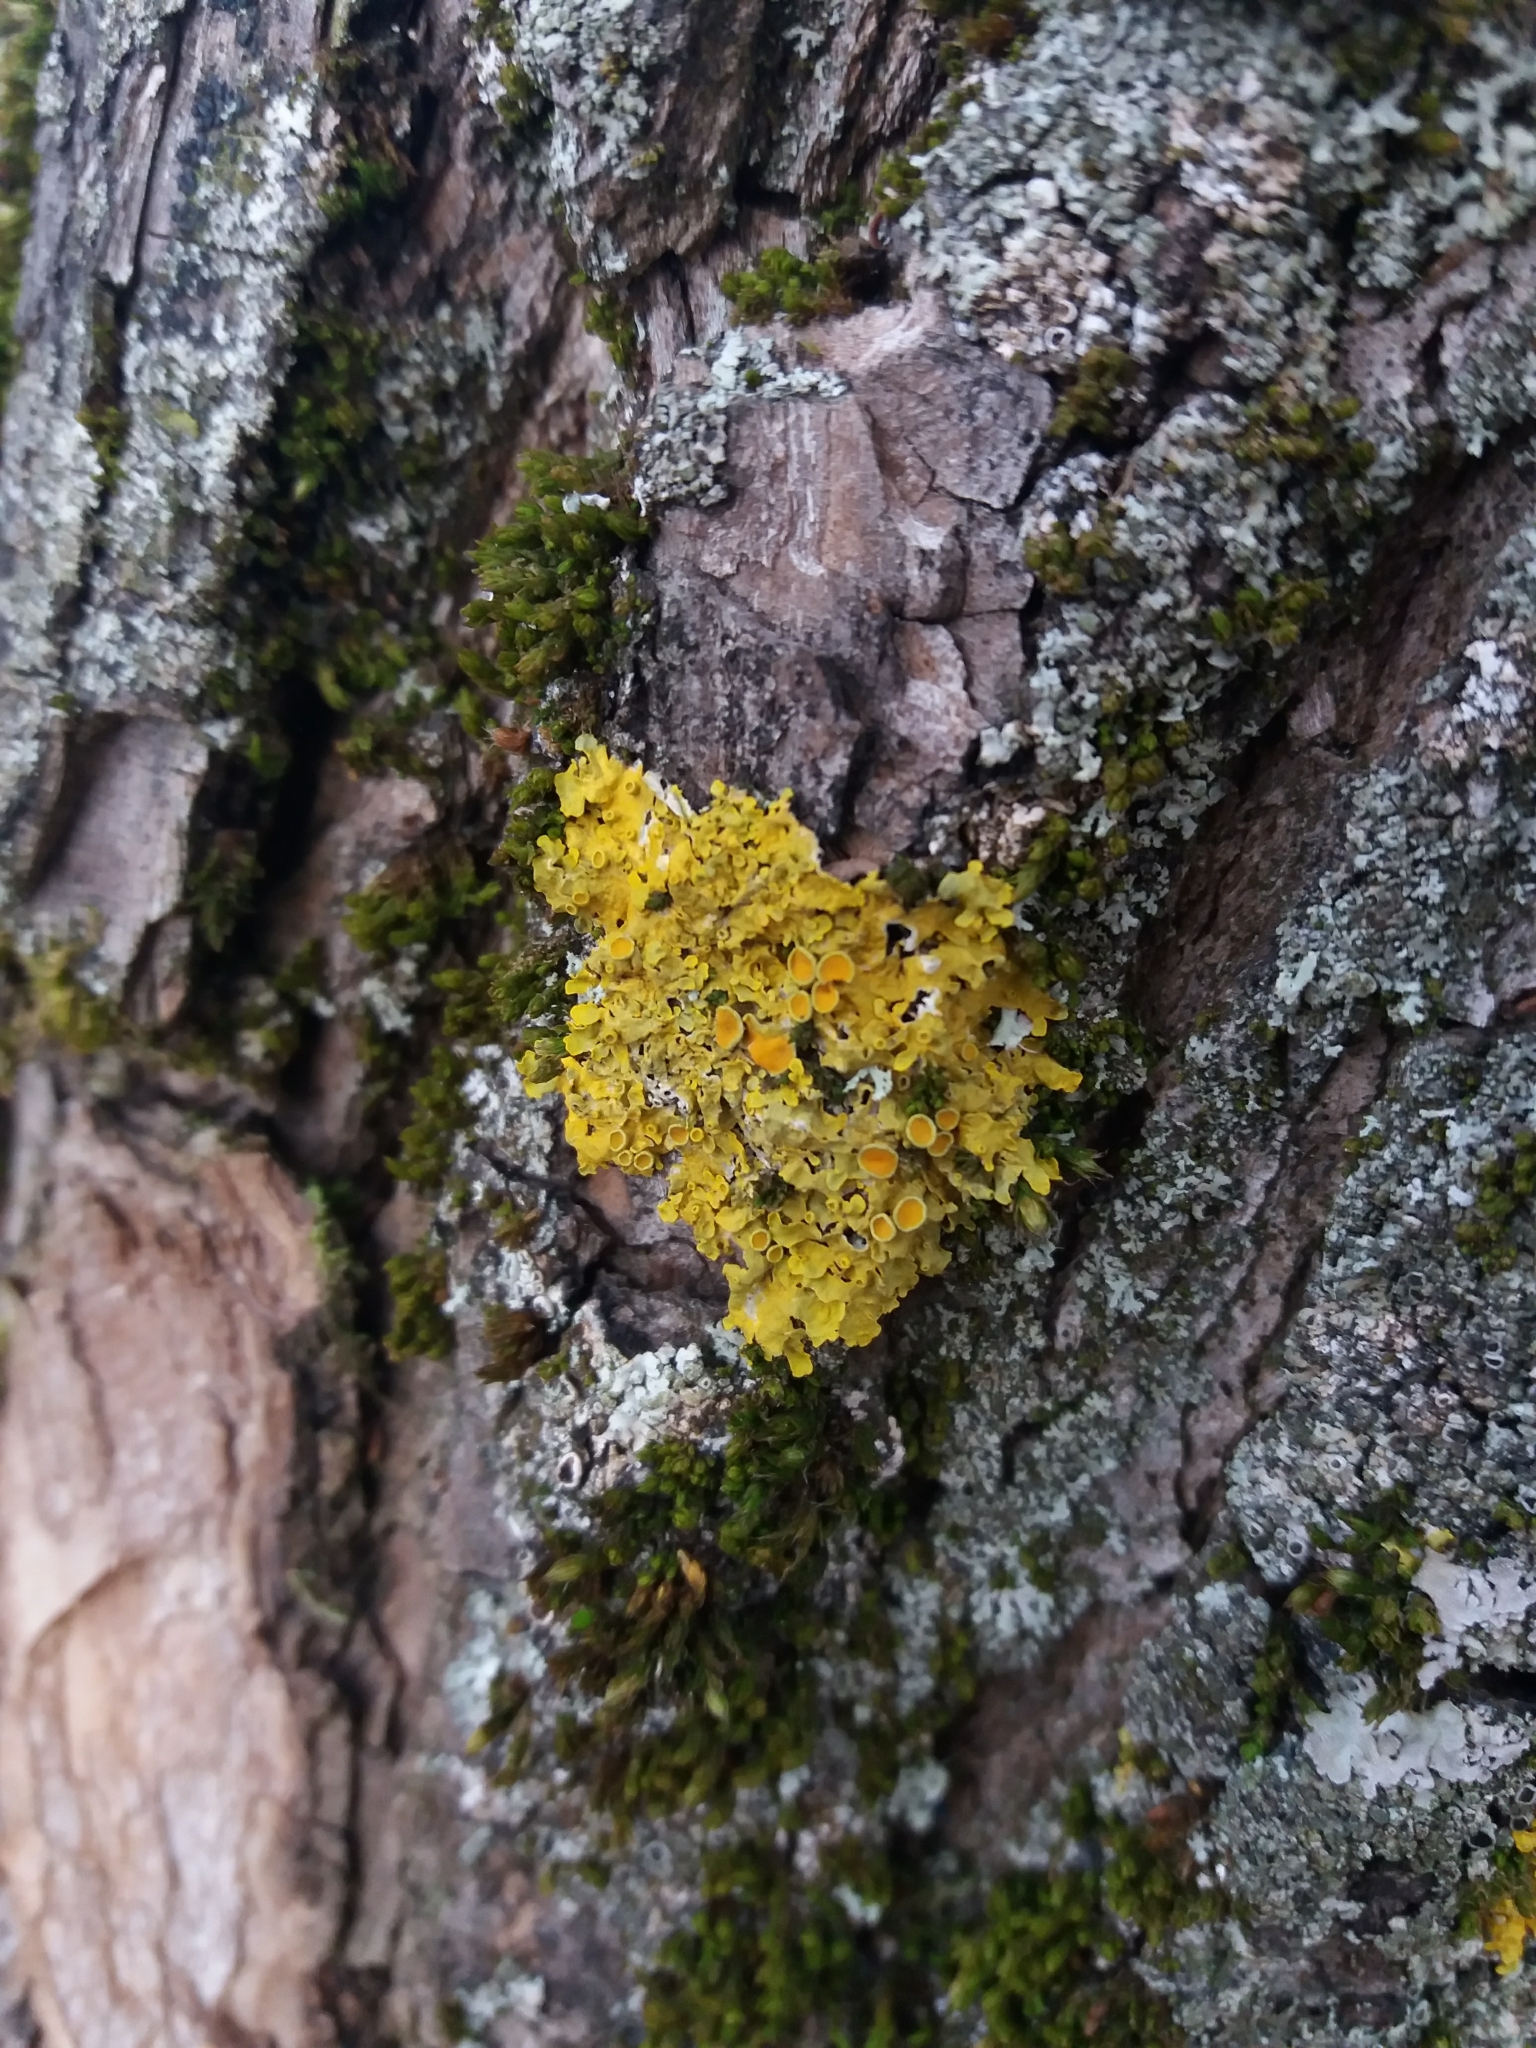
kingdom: Fungi
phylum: Ascomycota
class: Lecanoromycetes
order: Teloschistales
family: Teloschistaceae
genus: Xanthoria
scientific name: Xanthoria parietina
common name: Common orange lichen
